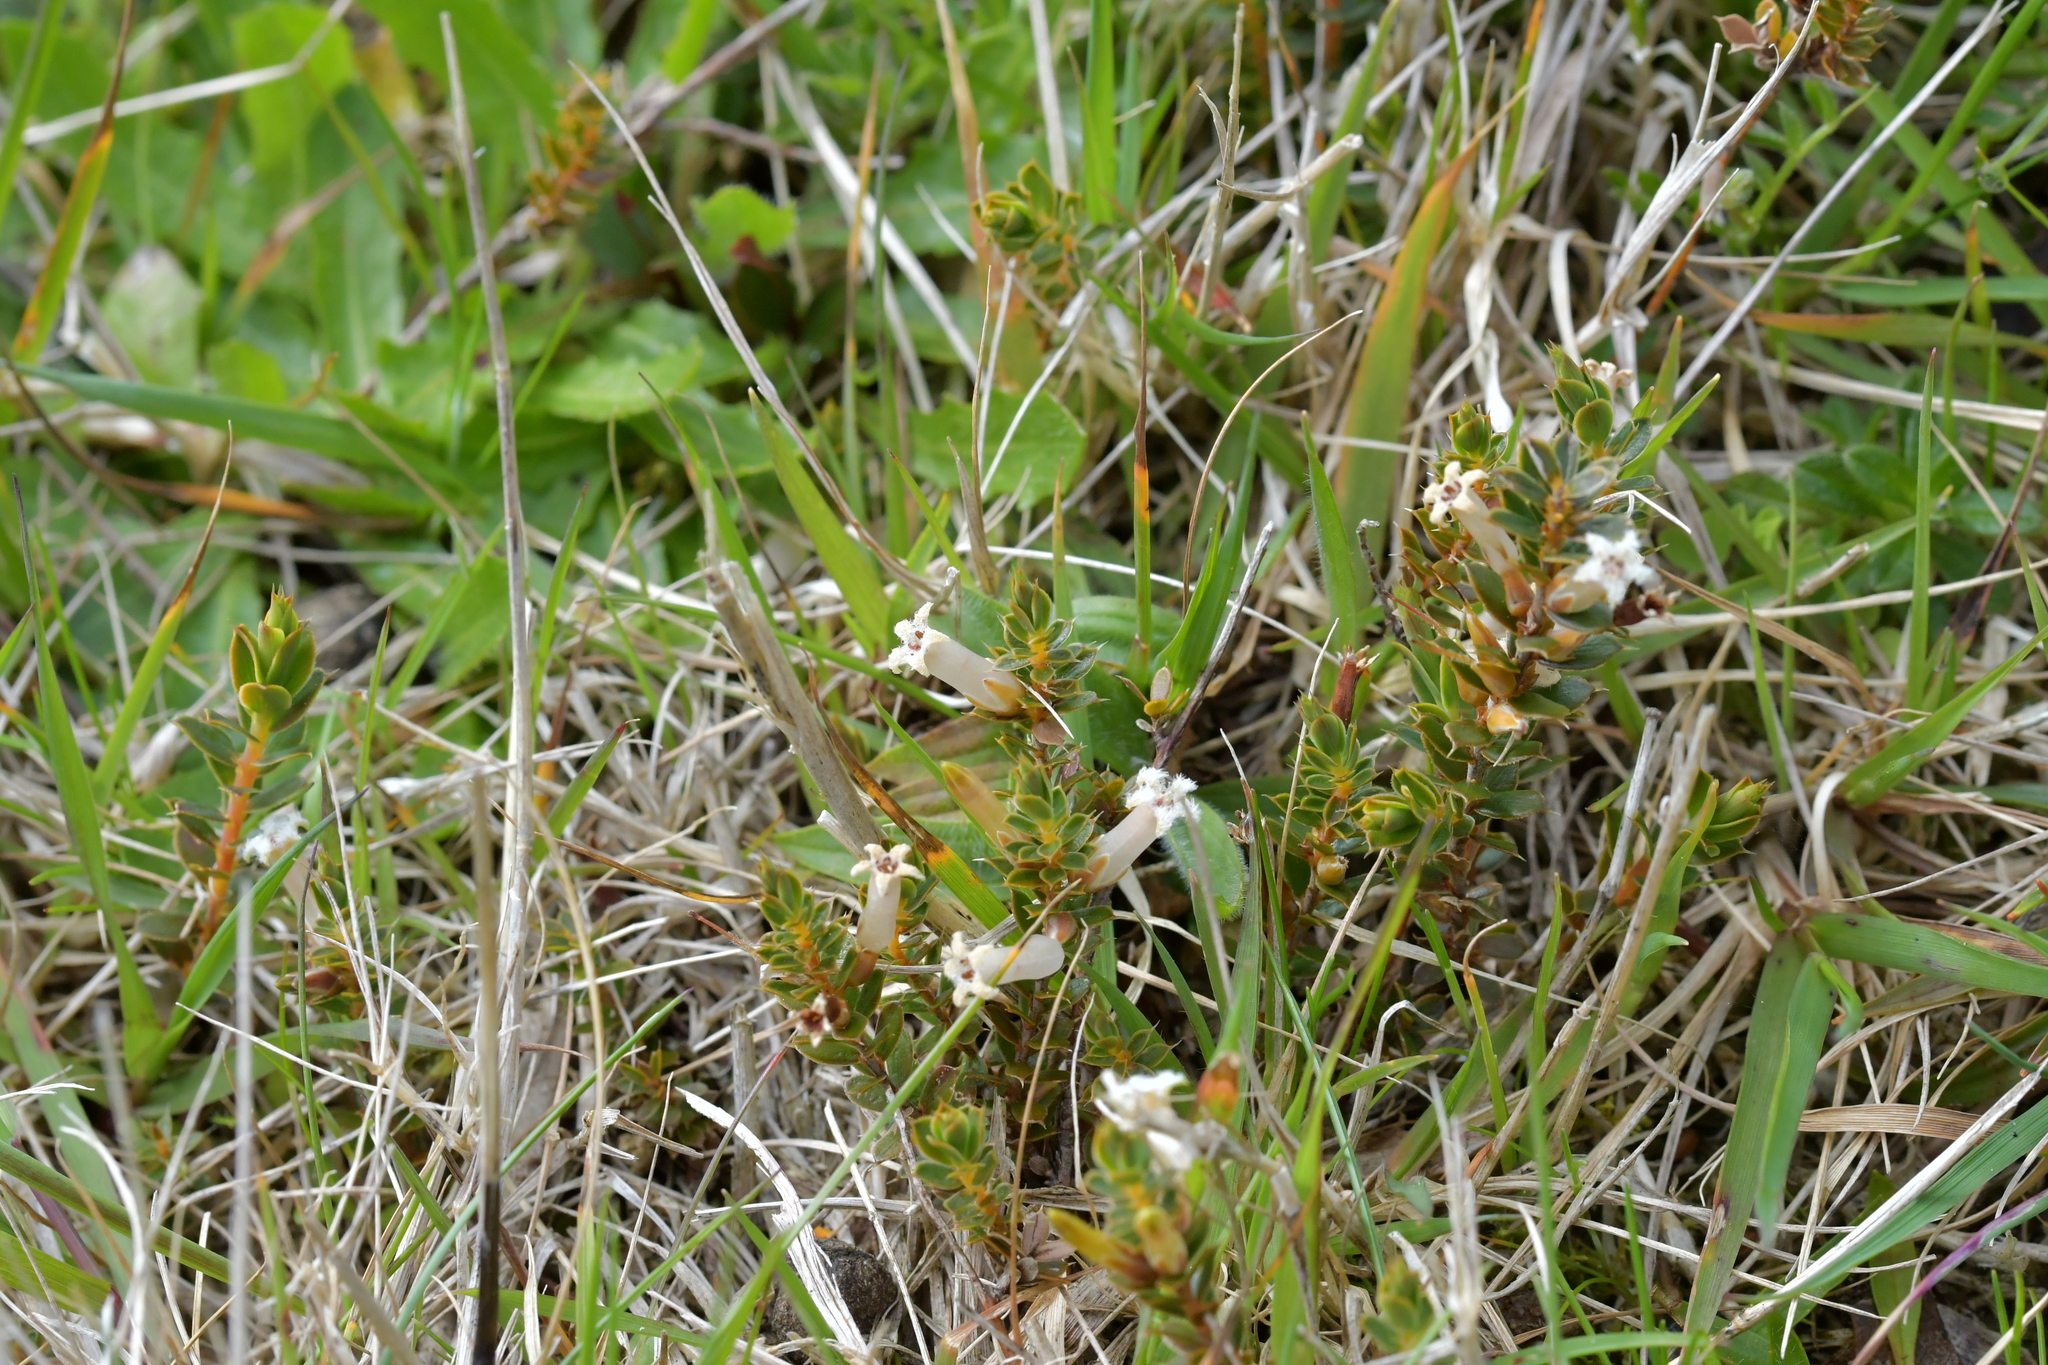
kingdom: Plantae
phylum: Tracheophyta
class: Magnoliopsida
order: Ericales
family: Ericaceae
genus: Styphelia
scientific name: Styphelia nesophila
